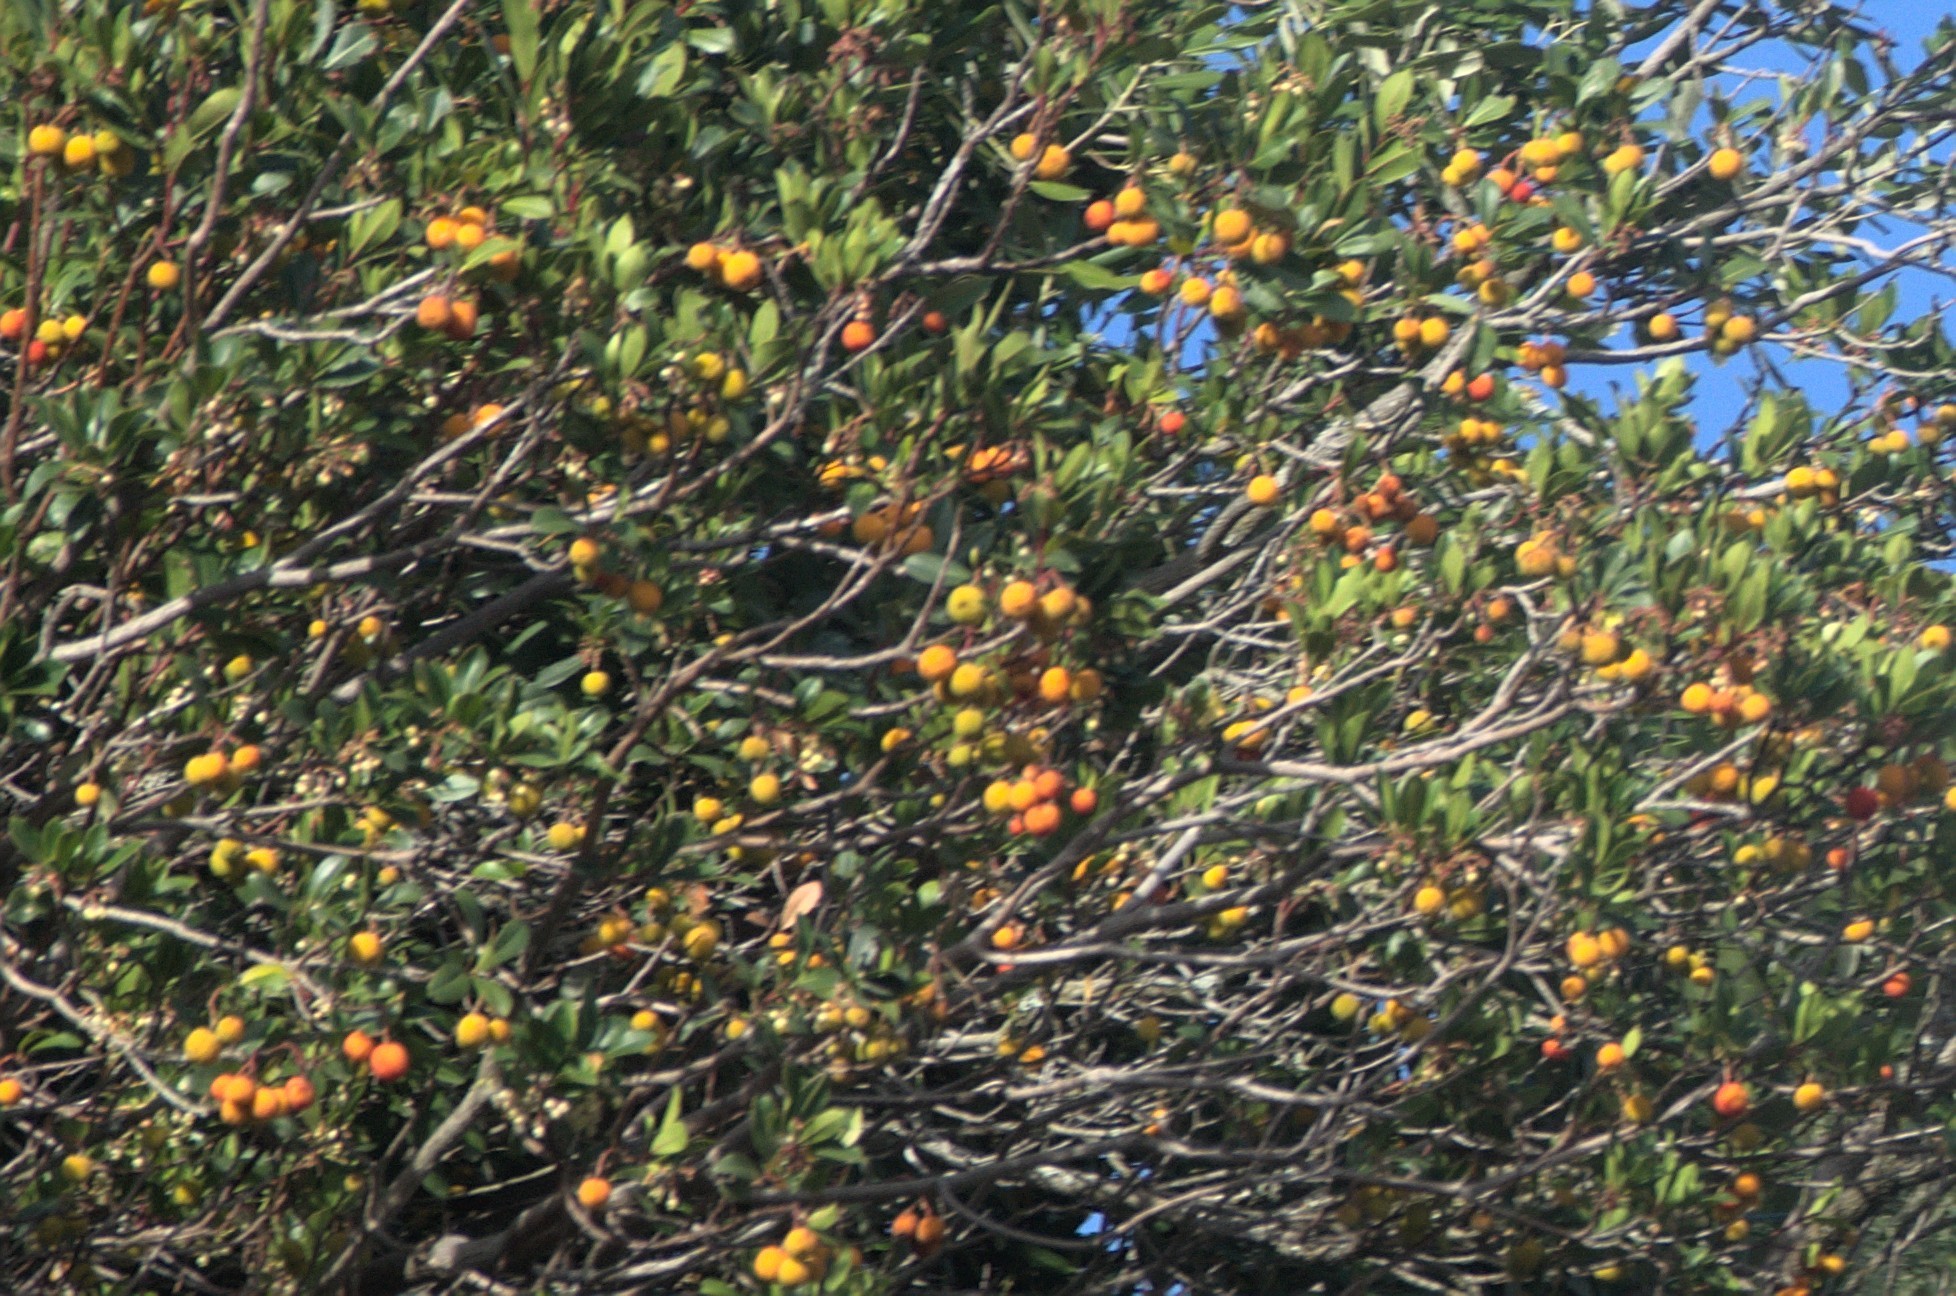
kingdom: Plantae
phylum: Tracheophyta
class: Magnoliopsida
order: Ericales
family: Ericaceae
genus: Arbutus
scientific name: Arbutus unedo
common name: Strawberry-tree
